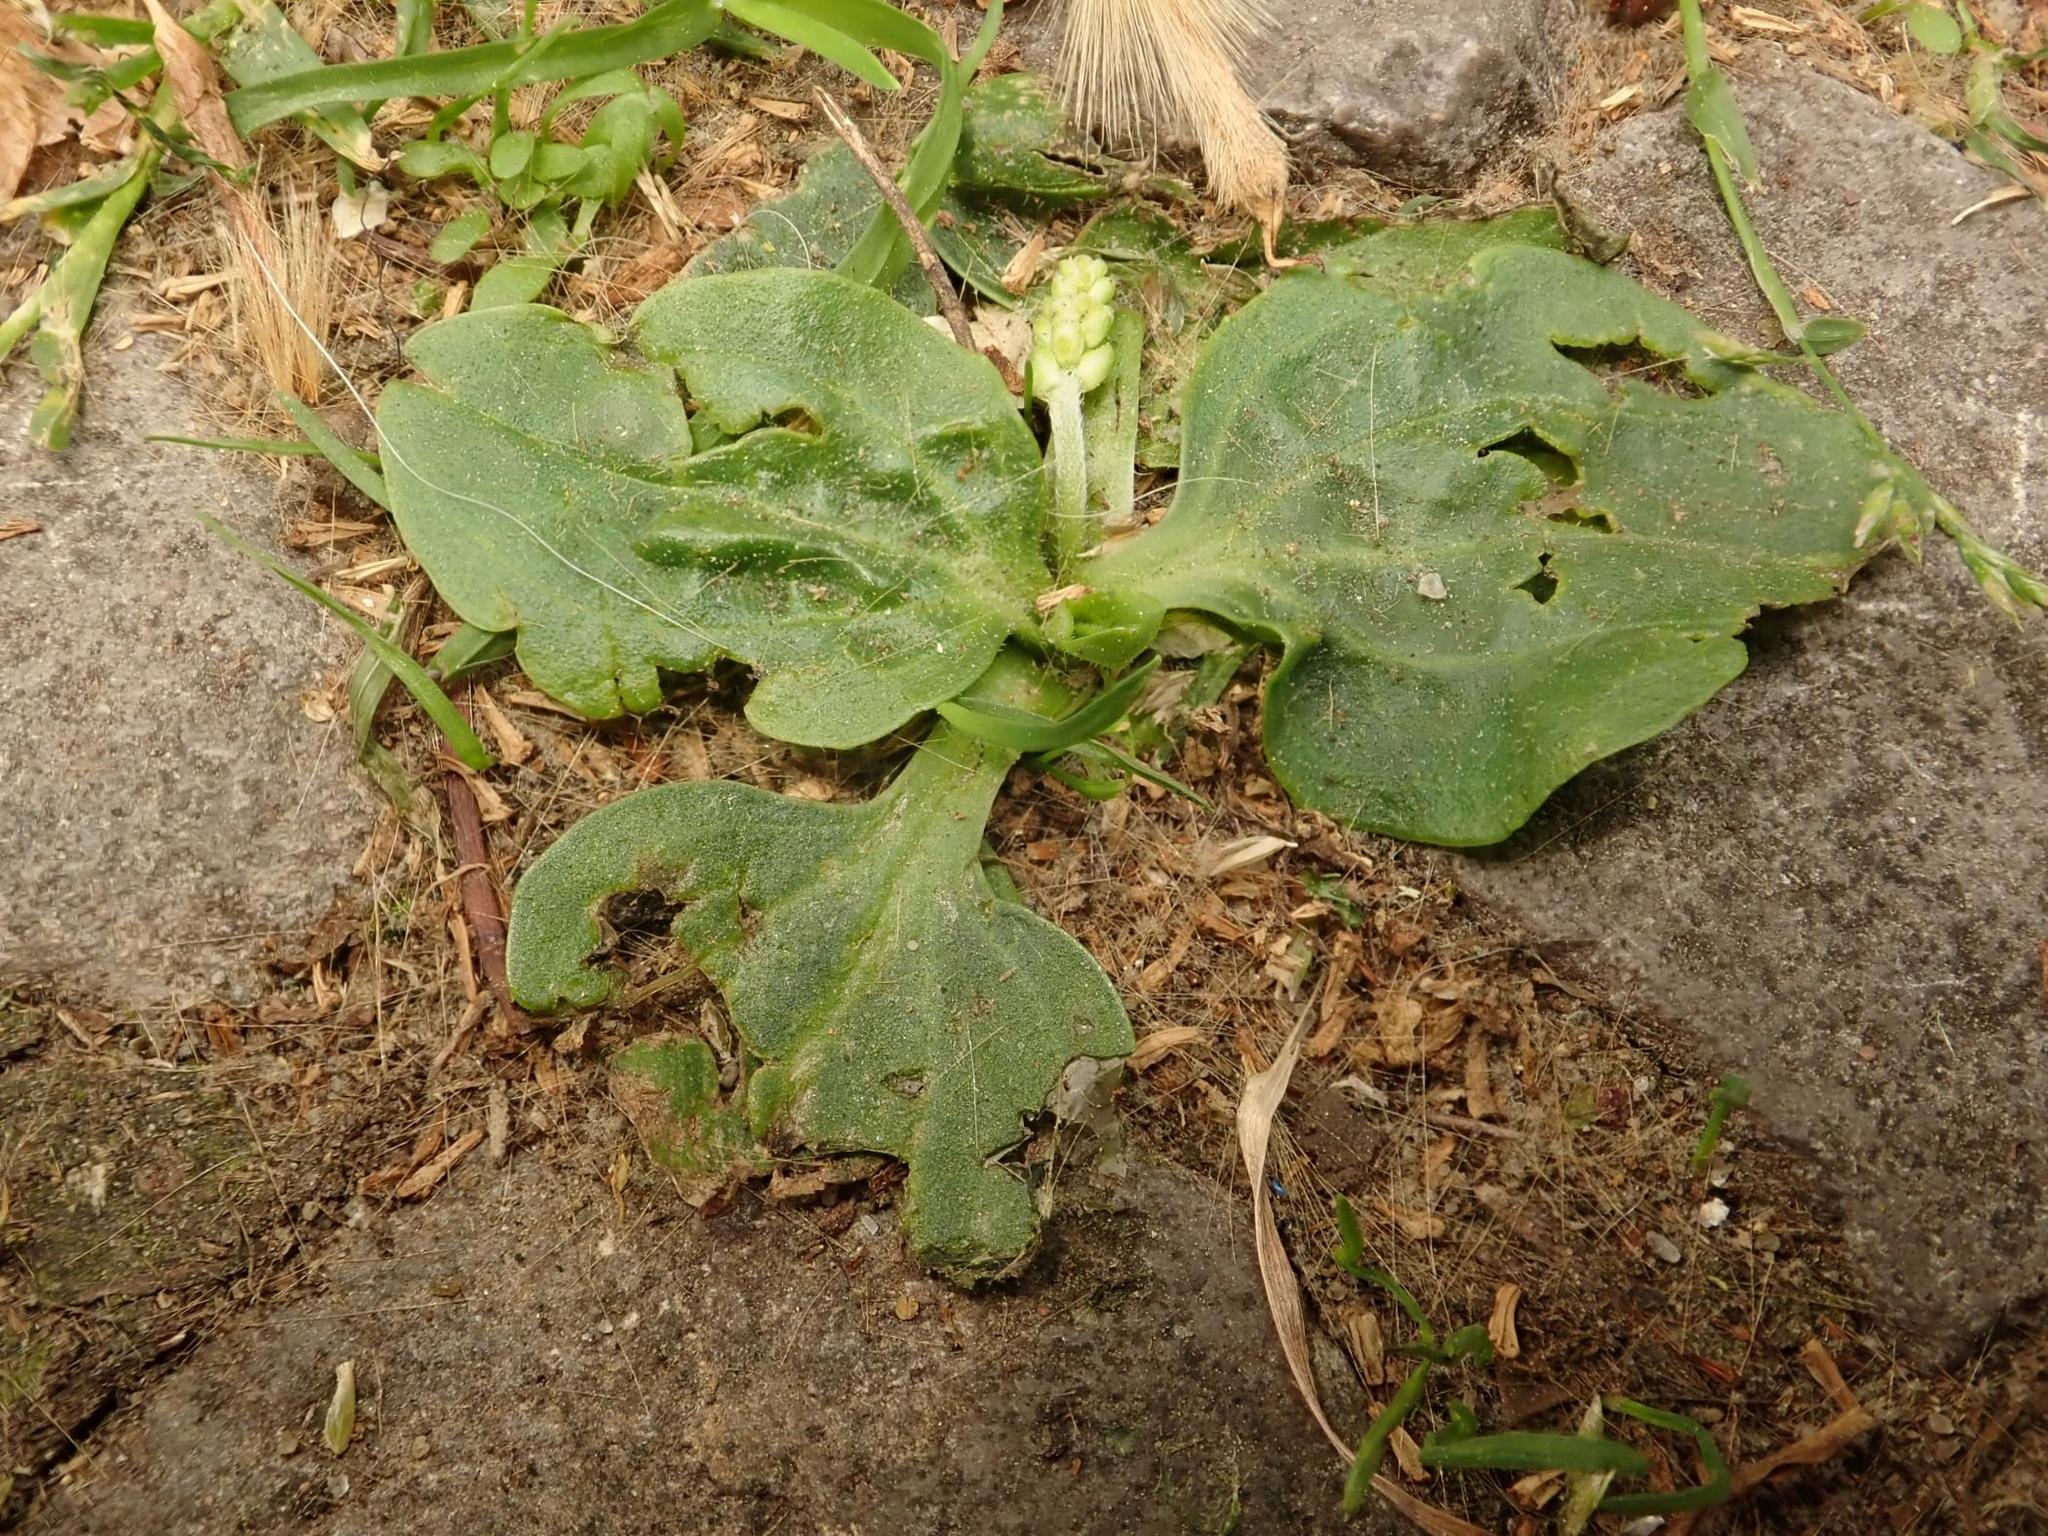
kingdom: Plantae
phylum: Tracheophyta
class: Magnoliopsida
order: Lamiales
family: Plantaginaceae
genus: Plantago
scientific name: Plantago major
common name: Common plantain
